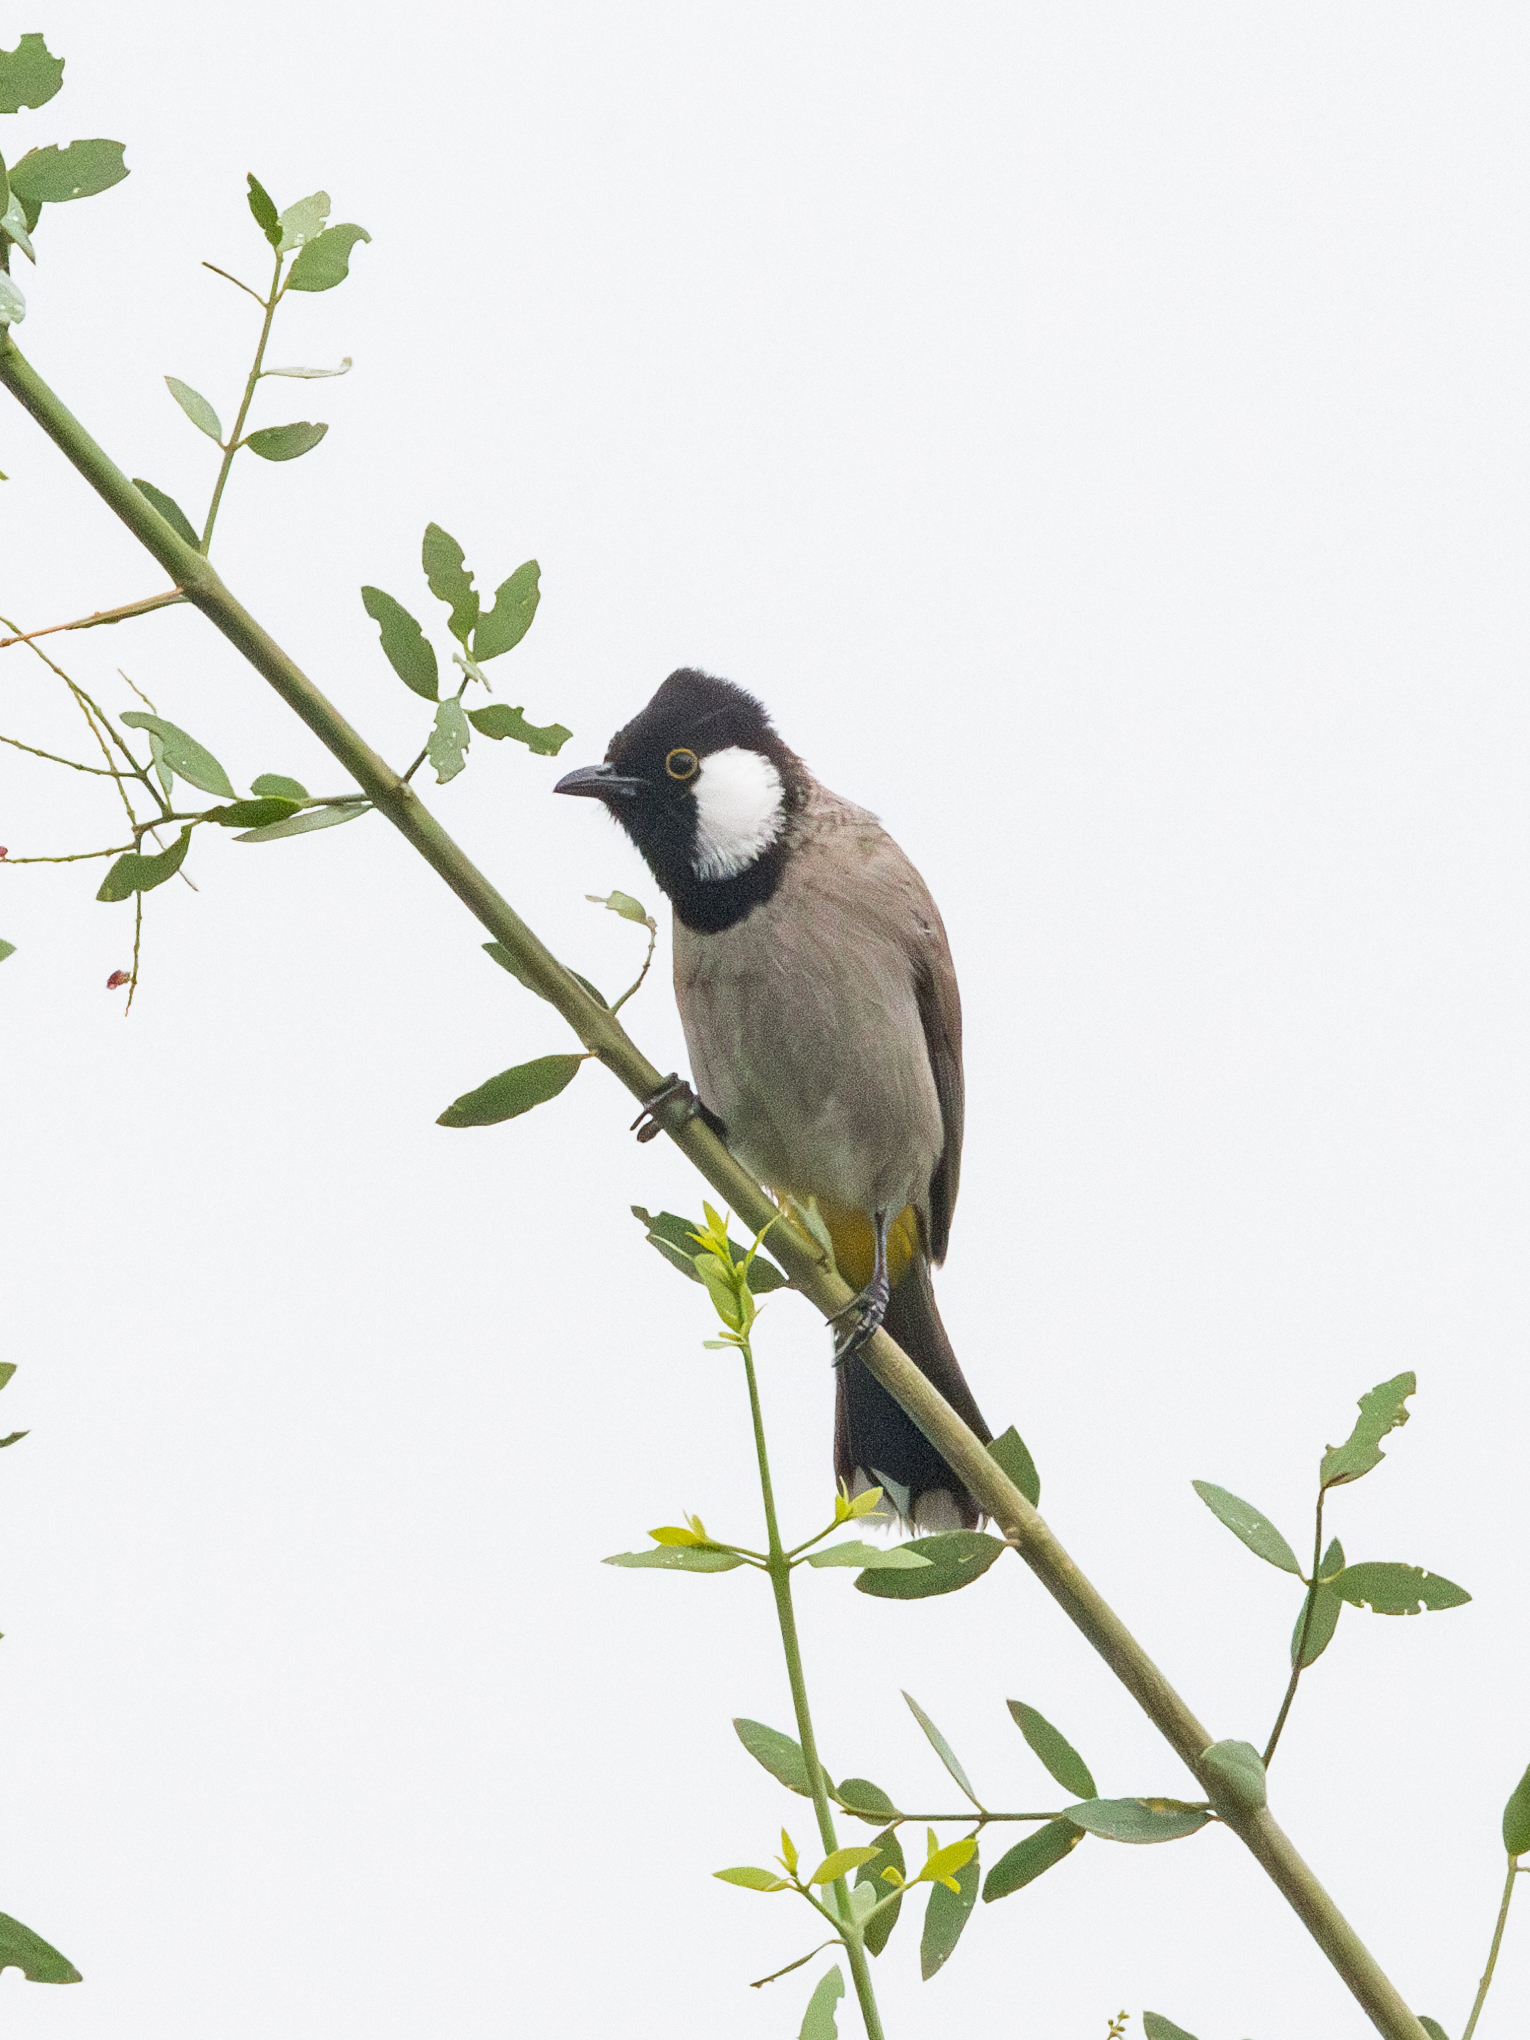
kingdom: Animalia
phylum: Chordata
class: Aves
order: Passeriformes
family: Pycnonotidae
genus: Pycnonotus
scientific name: Pycnonotus leucotis
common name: White-eared bulbul
